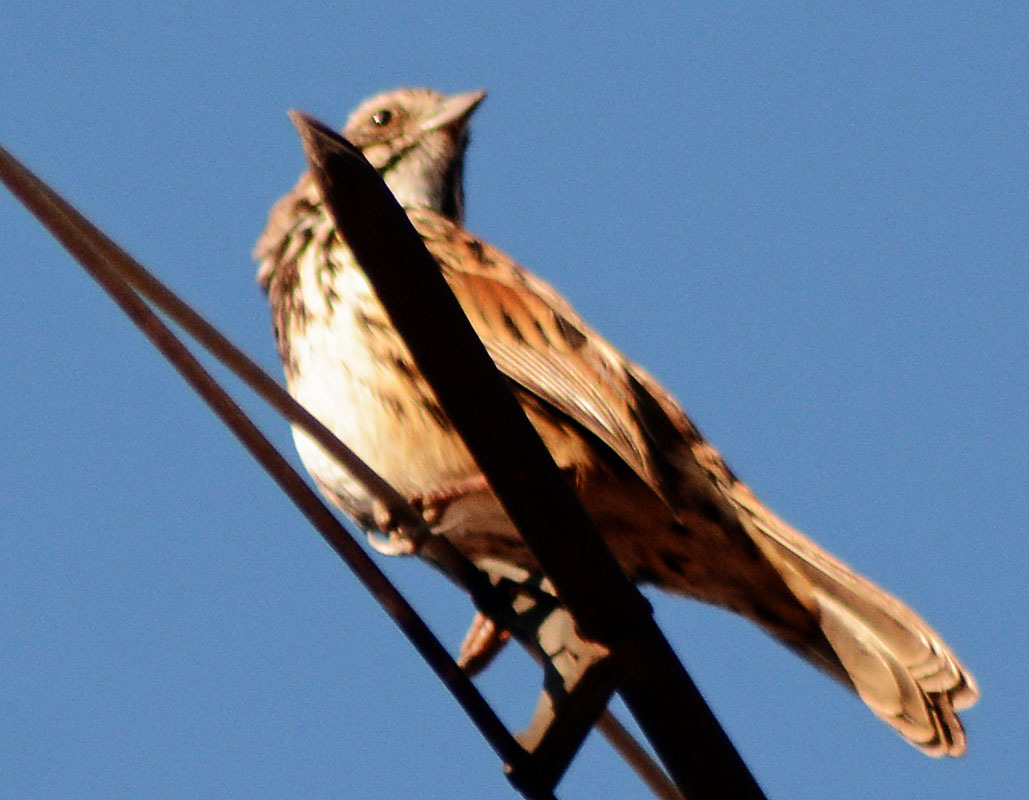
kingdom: Animalia
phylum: Chordata
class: Aves
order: Passeriformes
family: Passerellidae
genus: Melospiza
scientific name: Melospiza melodia
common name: Song sparrow
